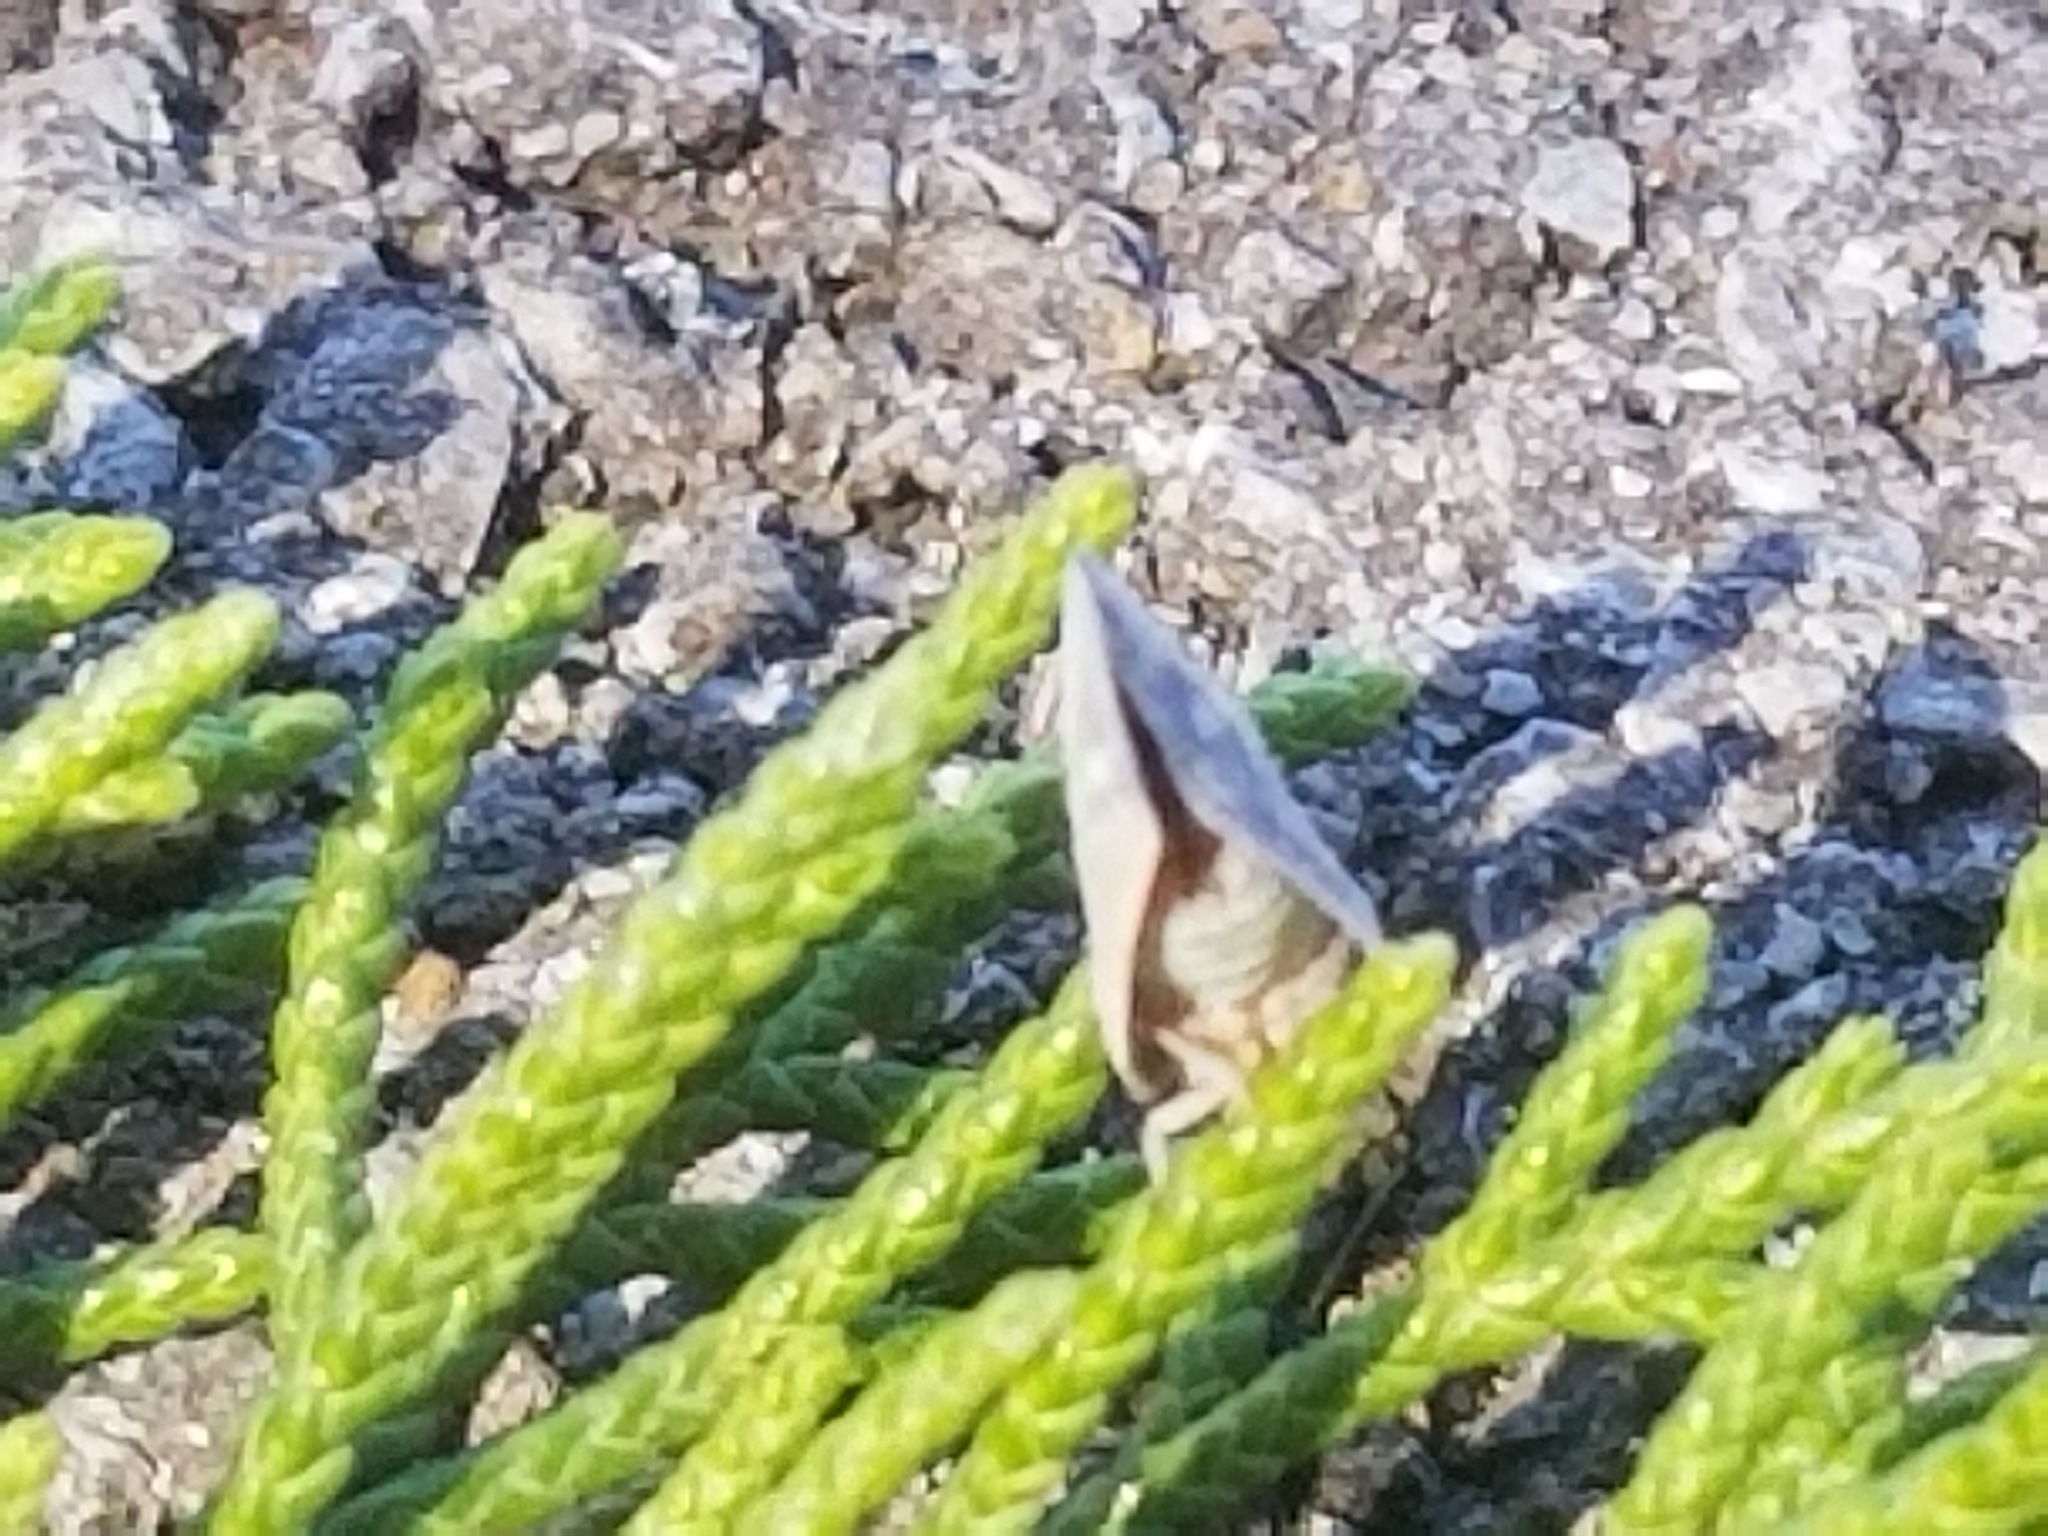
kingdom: Animalia
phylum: Arthropoda
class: Insecta
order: Hemiptera
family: Flatidae
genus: Metcalfa
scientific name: Metcalfa pruinosa
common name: Citrus flatid planthopper
